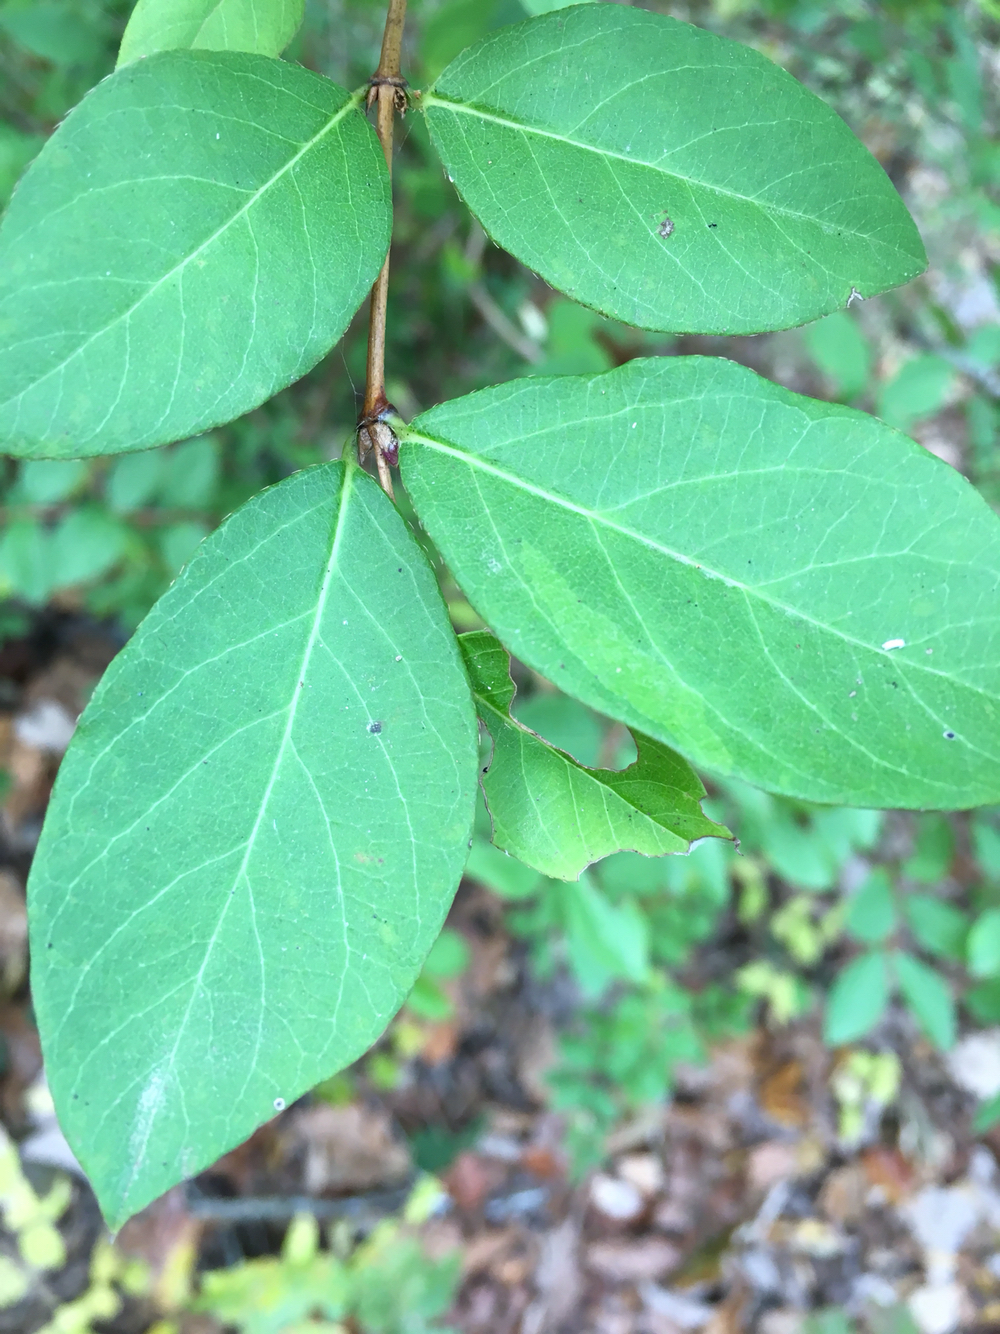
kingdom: Plantae
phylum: Tracheophyta
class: Magnoliopsida
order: Dipsacales
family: Caprifoliaceae
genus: Lonicera
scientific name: Lonicera fragrantissima
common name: Fragrant honeysuckle
